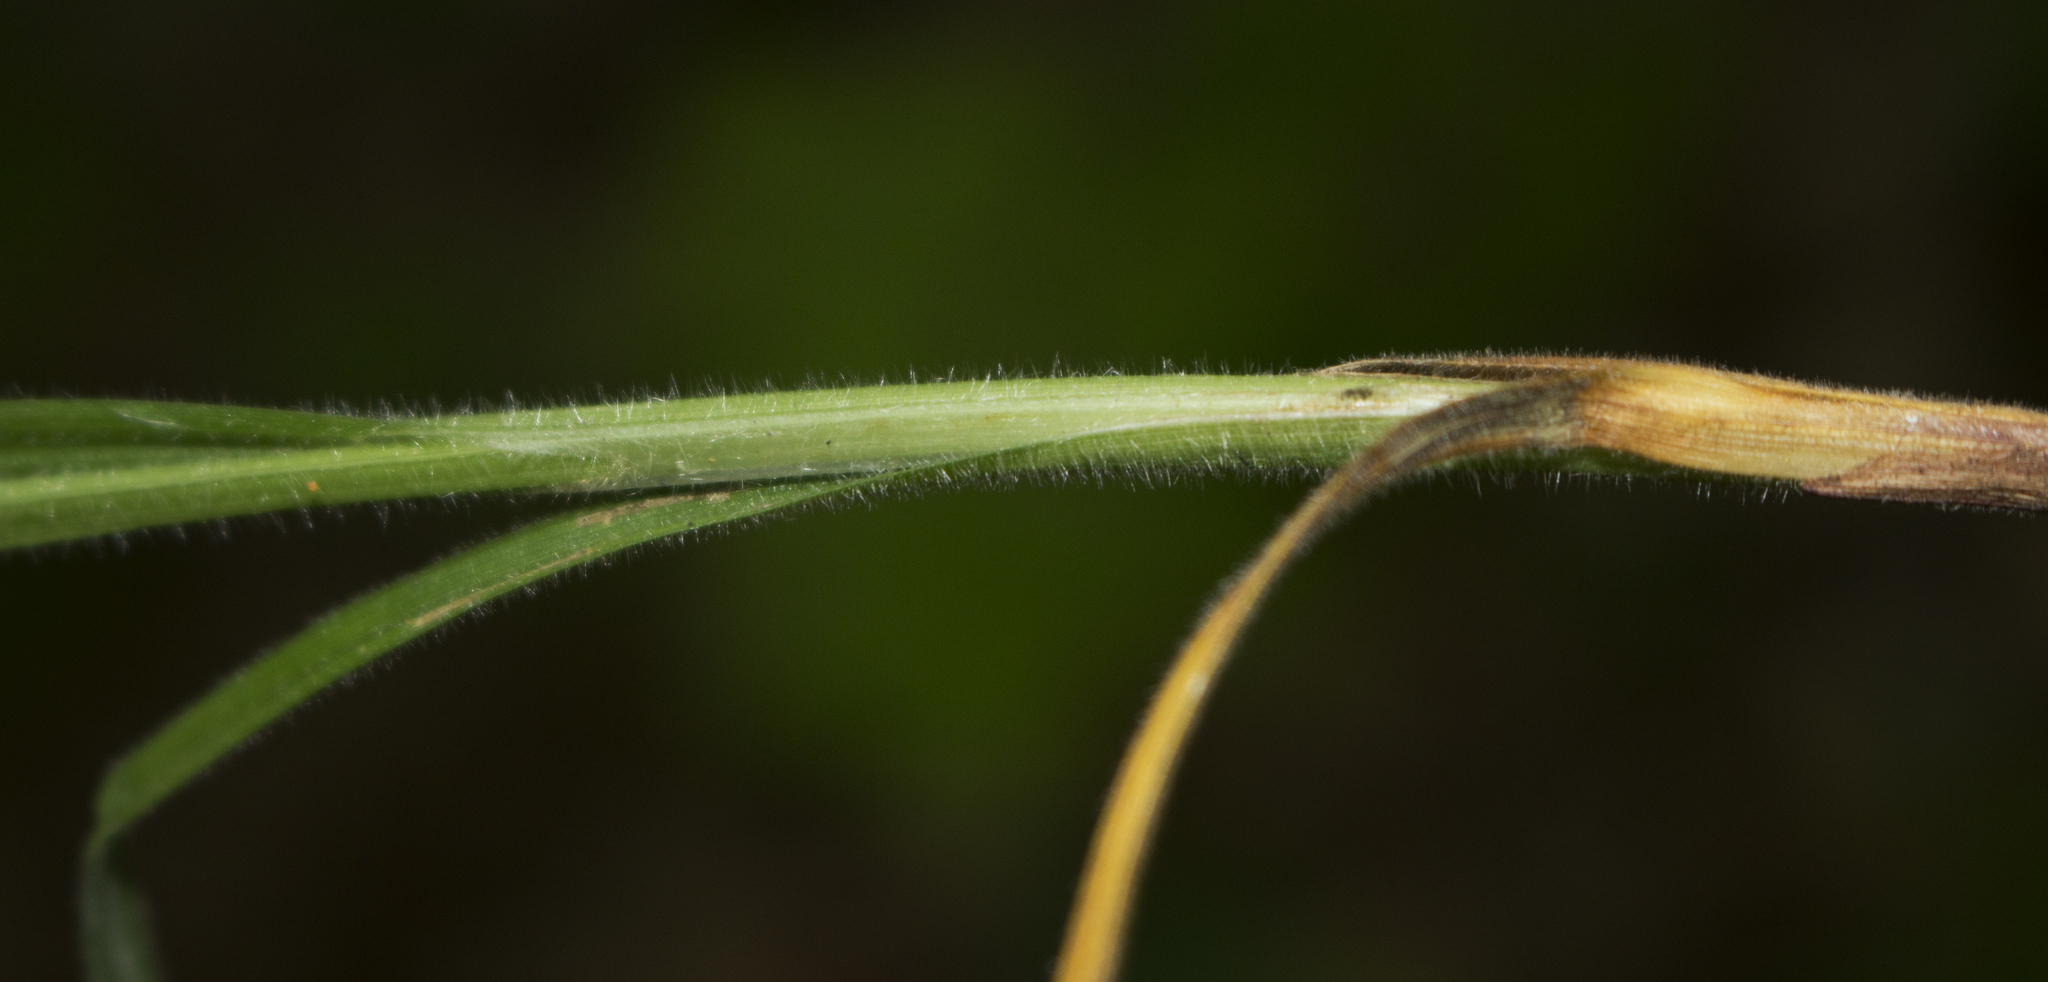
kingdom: Plantae
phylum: Tracheophyta
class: Liliopsida
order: Poales
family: Cyperaceae
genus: Carex
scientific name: Carex hirtifolia
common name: Hairy sedge
